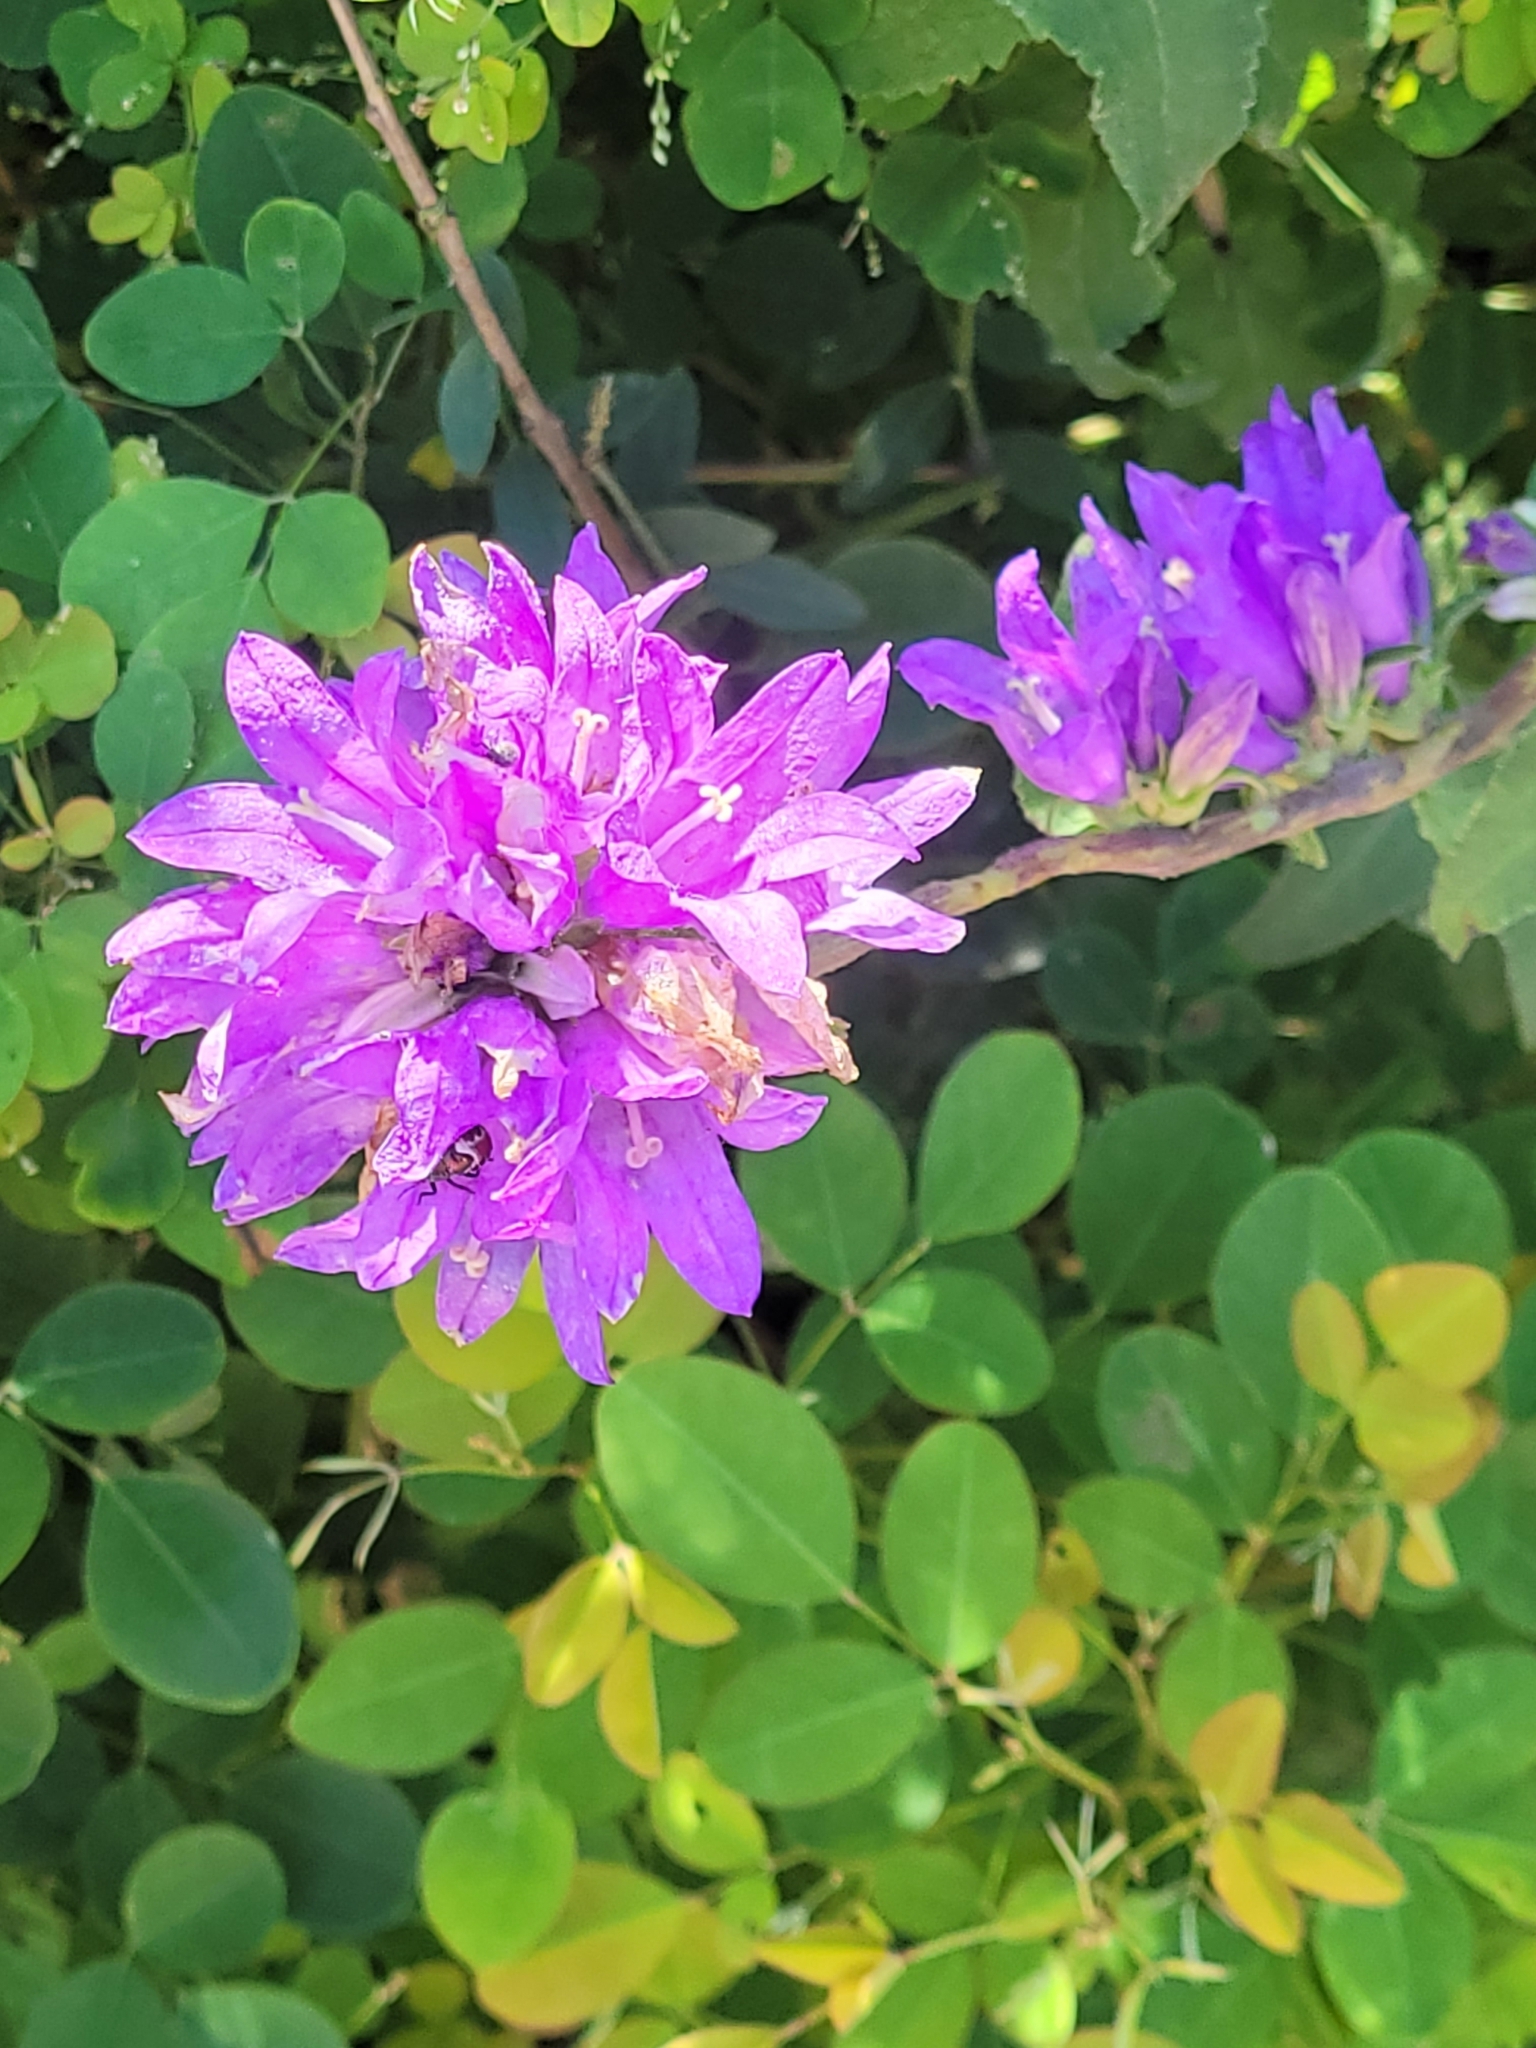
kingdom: Plantae
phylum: Tracheophyta
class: Magnoliopsida
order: Asterales
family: Campanulaceae
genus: Campanula
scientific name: Campanula glomerata
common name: Clustered bellflower
